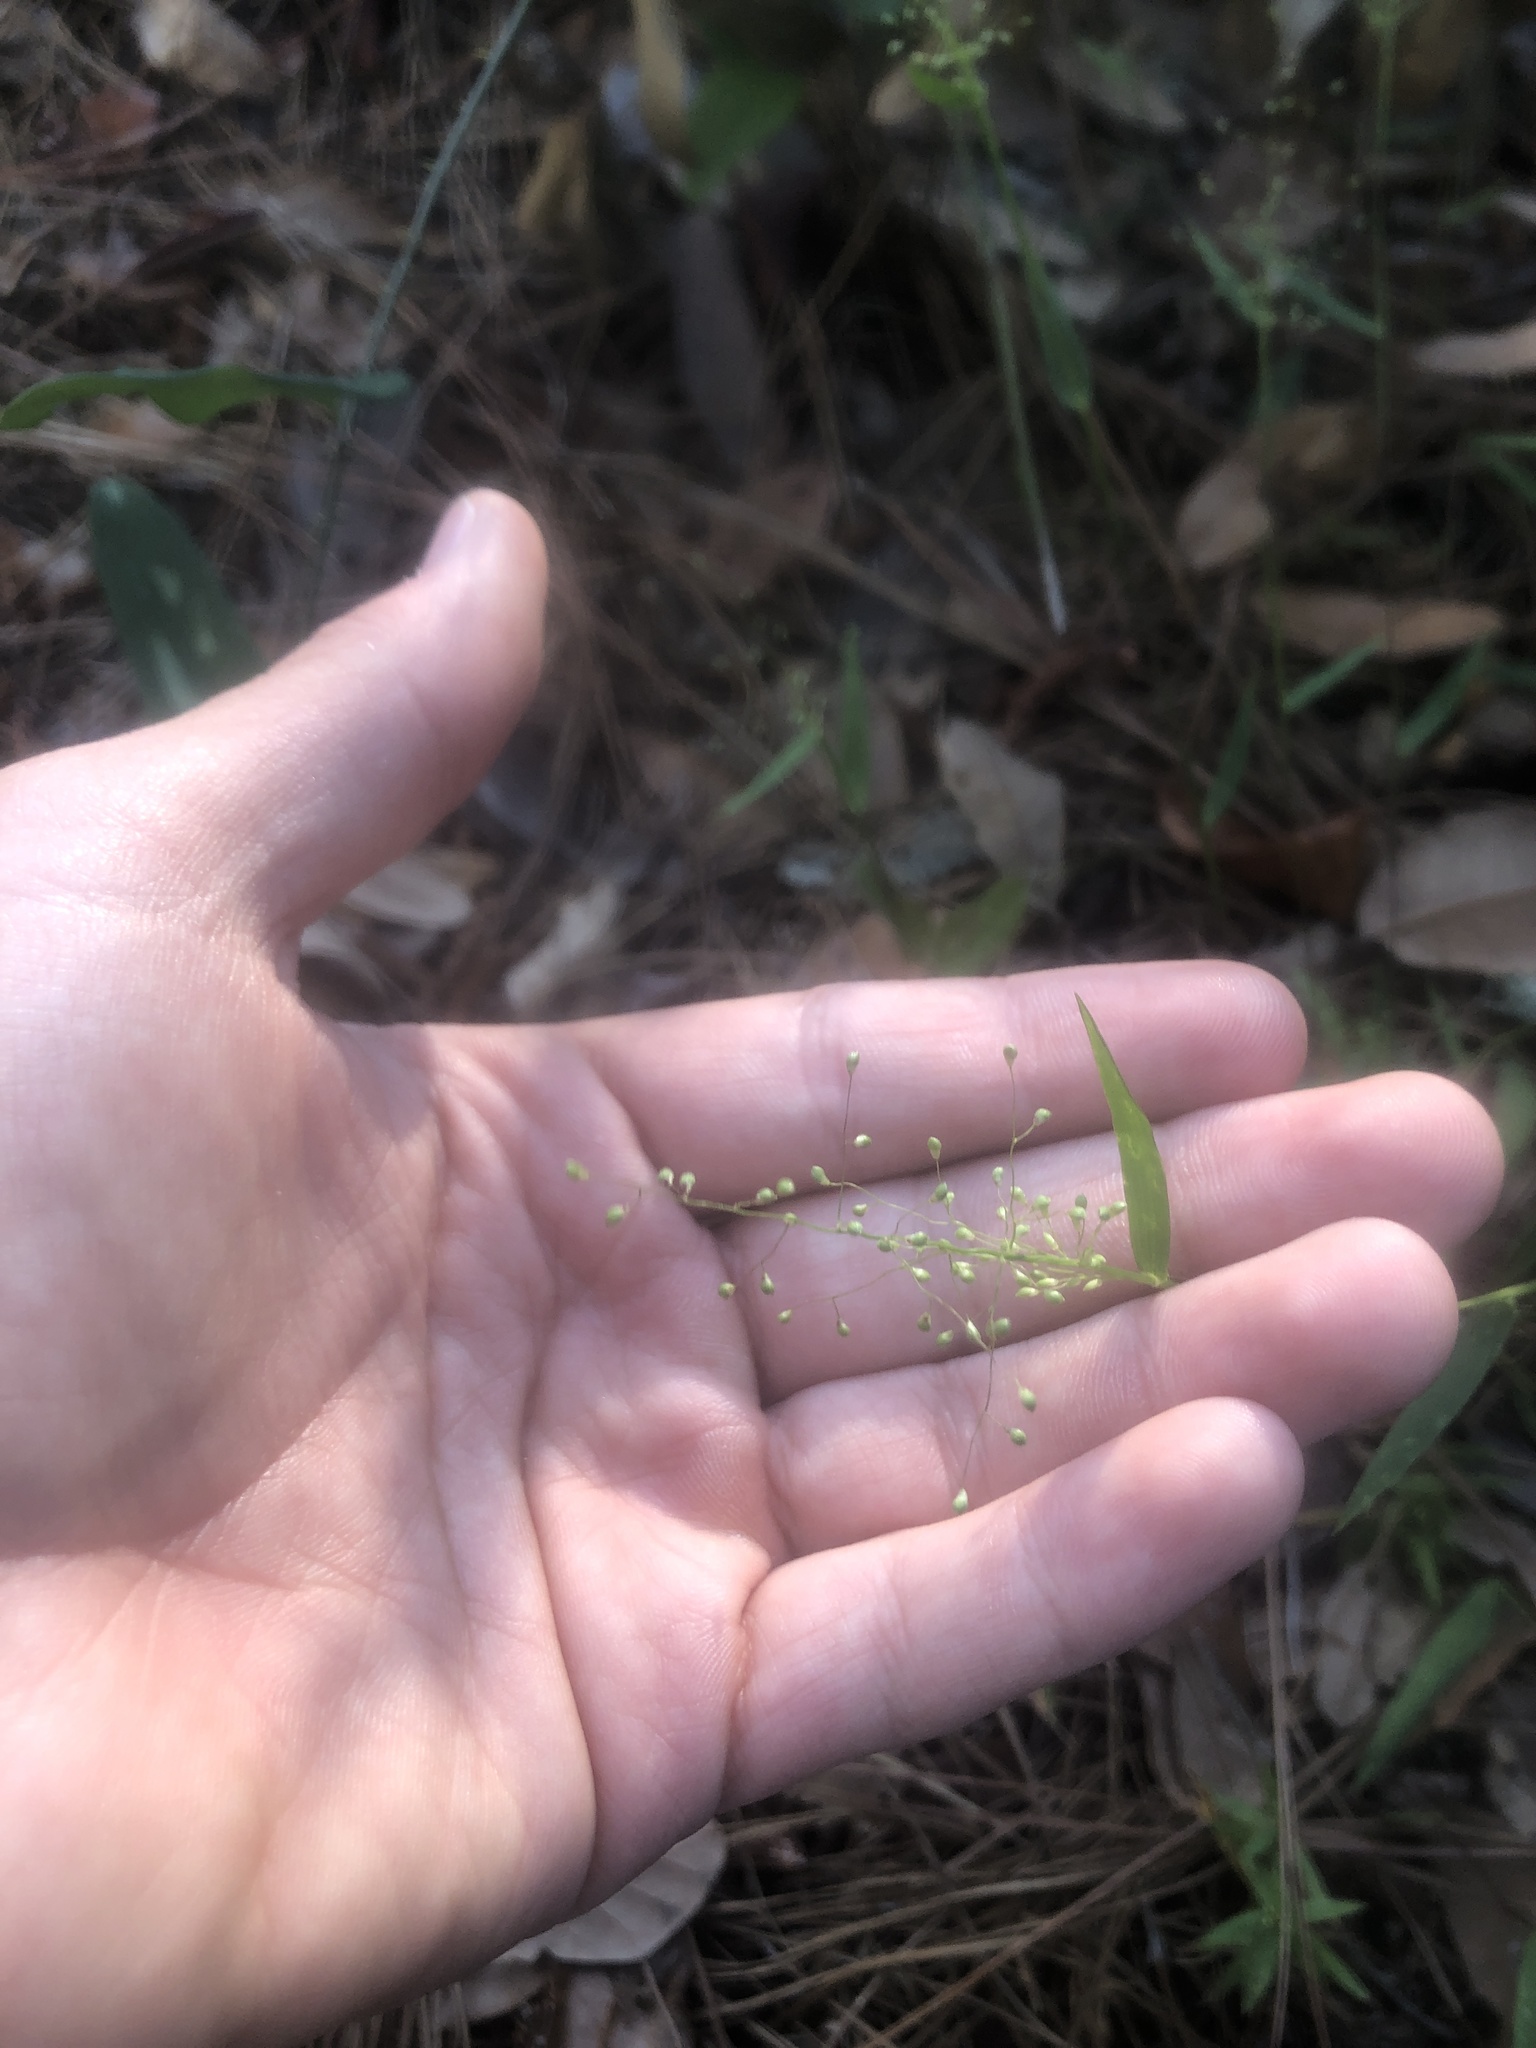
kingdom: Plantae
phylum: Tracheophyta
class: Liliopsida
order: Poales
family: Poaceae
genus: Dichanthelium
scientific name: Dichanthelium webberianum
